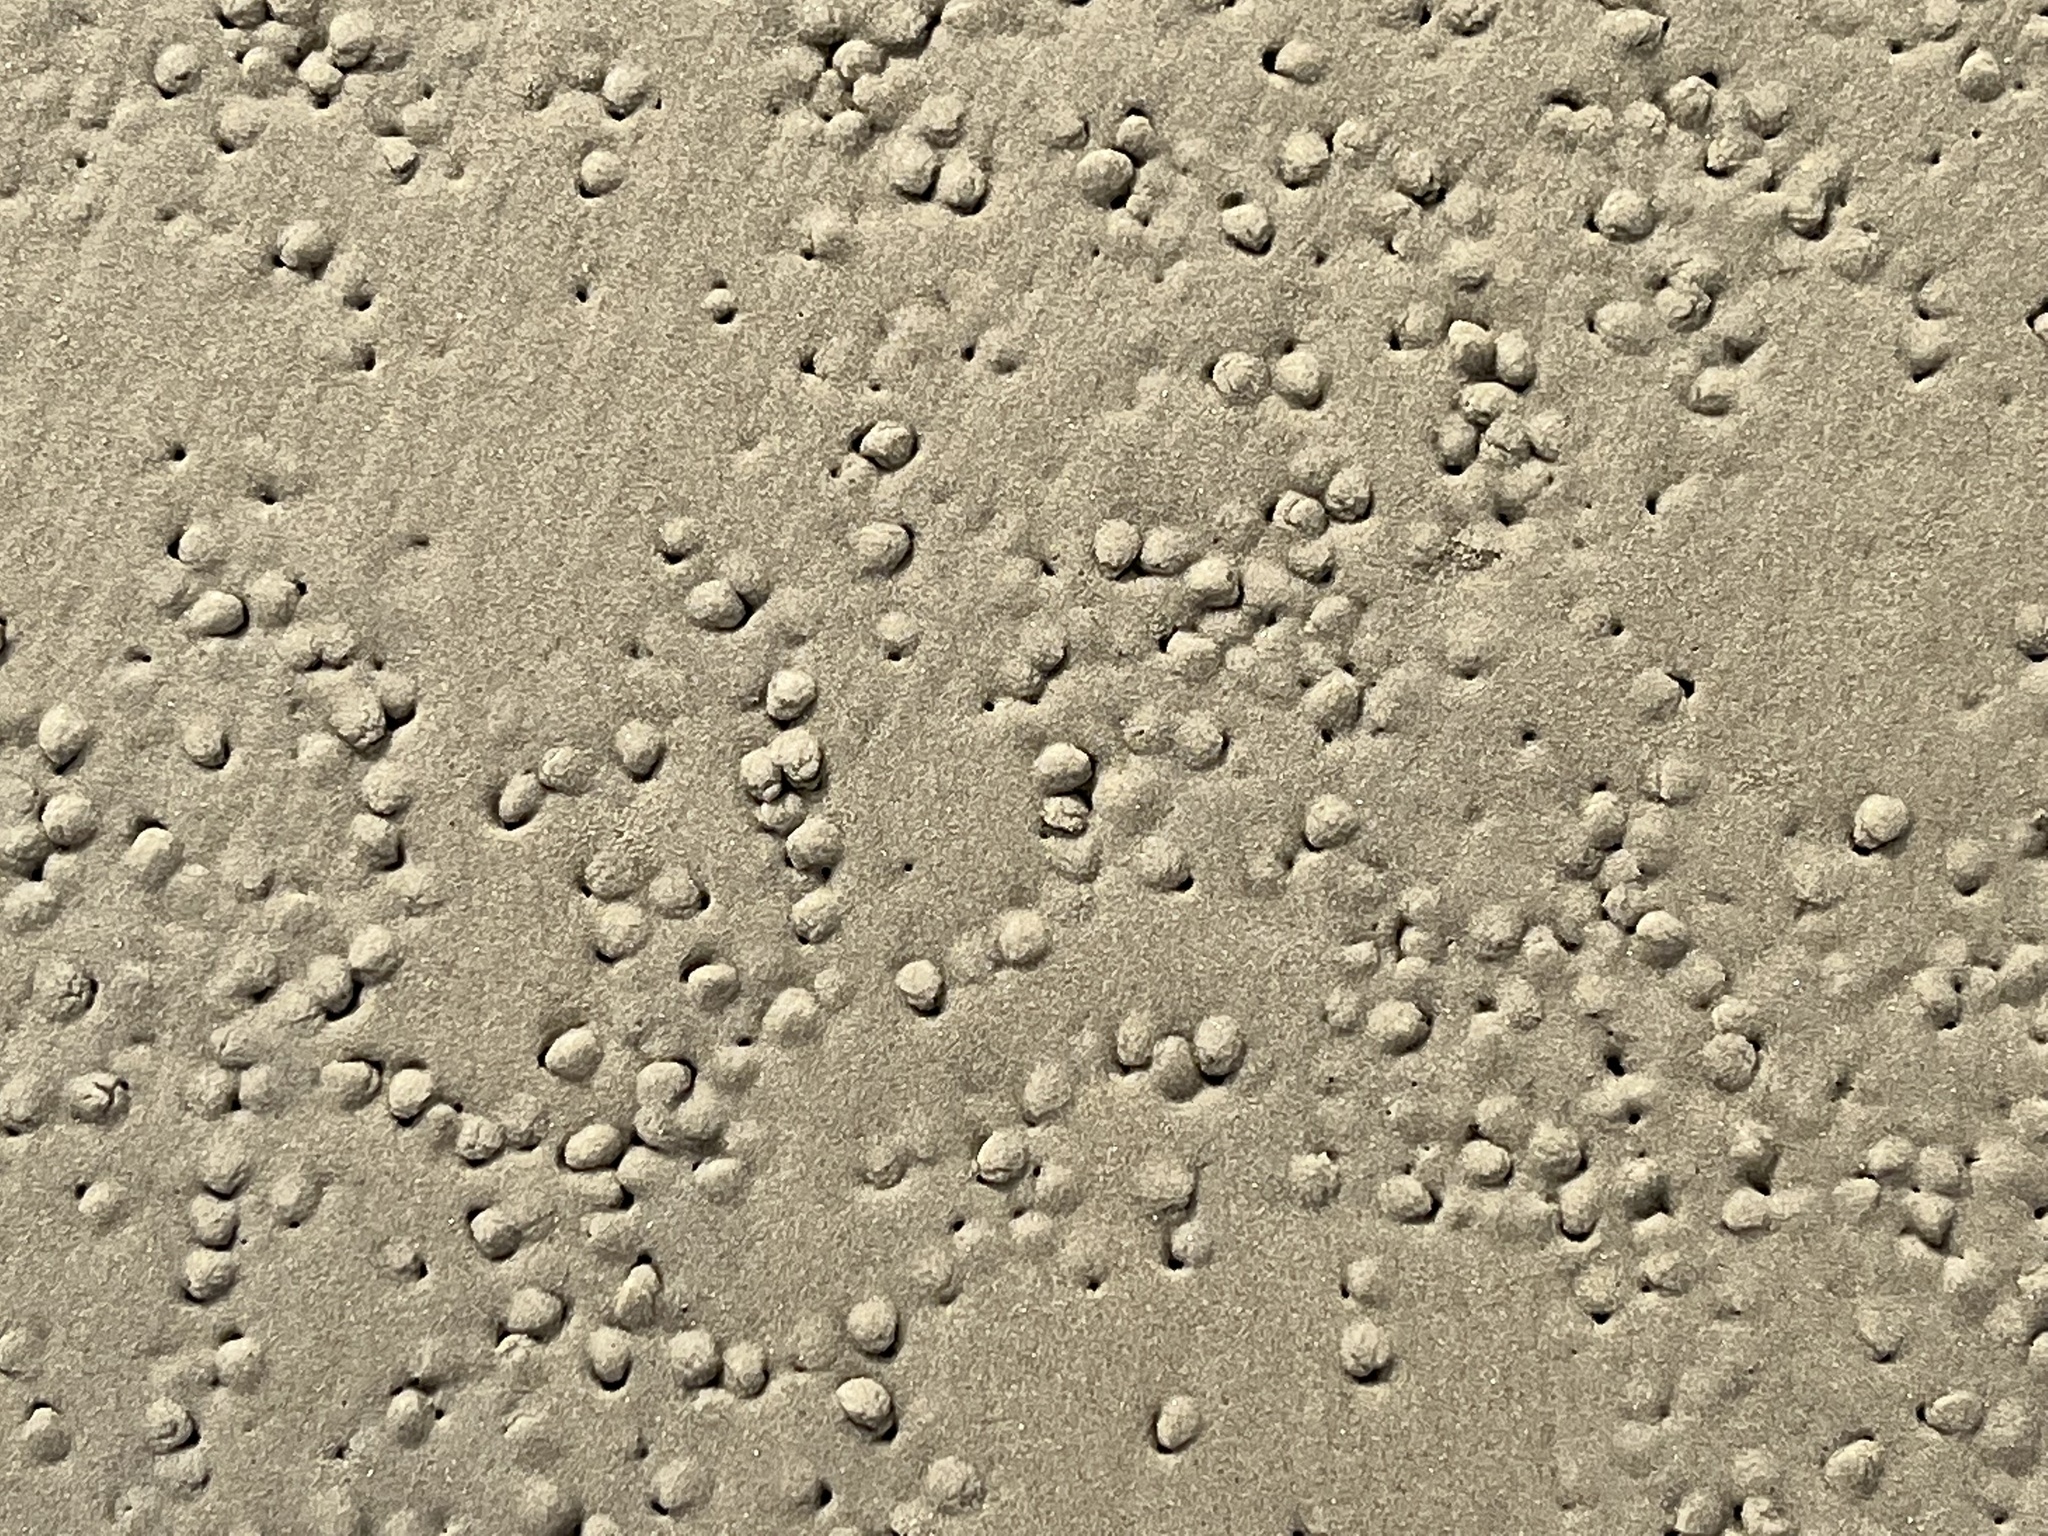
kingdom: Animalia
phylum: Mollusca
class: Gastropoda
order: Neogastropoda
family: Nassariidae
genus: Ilyanassa
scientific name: Ilyanassa obsoleta
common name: Eastern mudsnail
